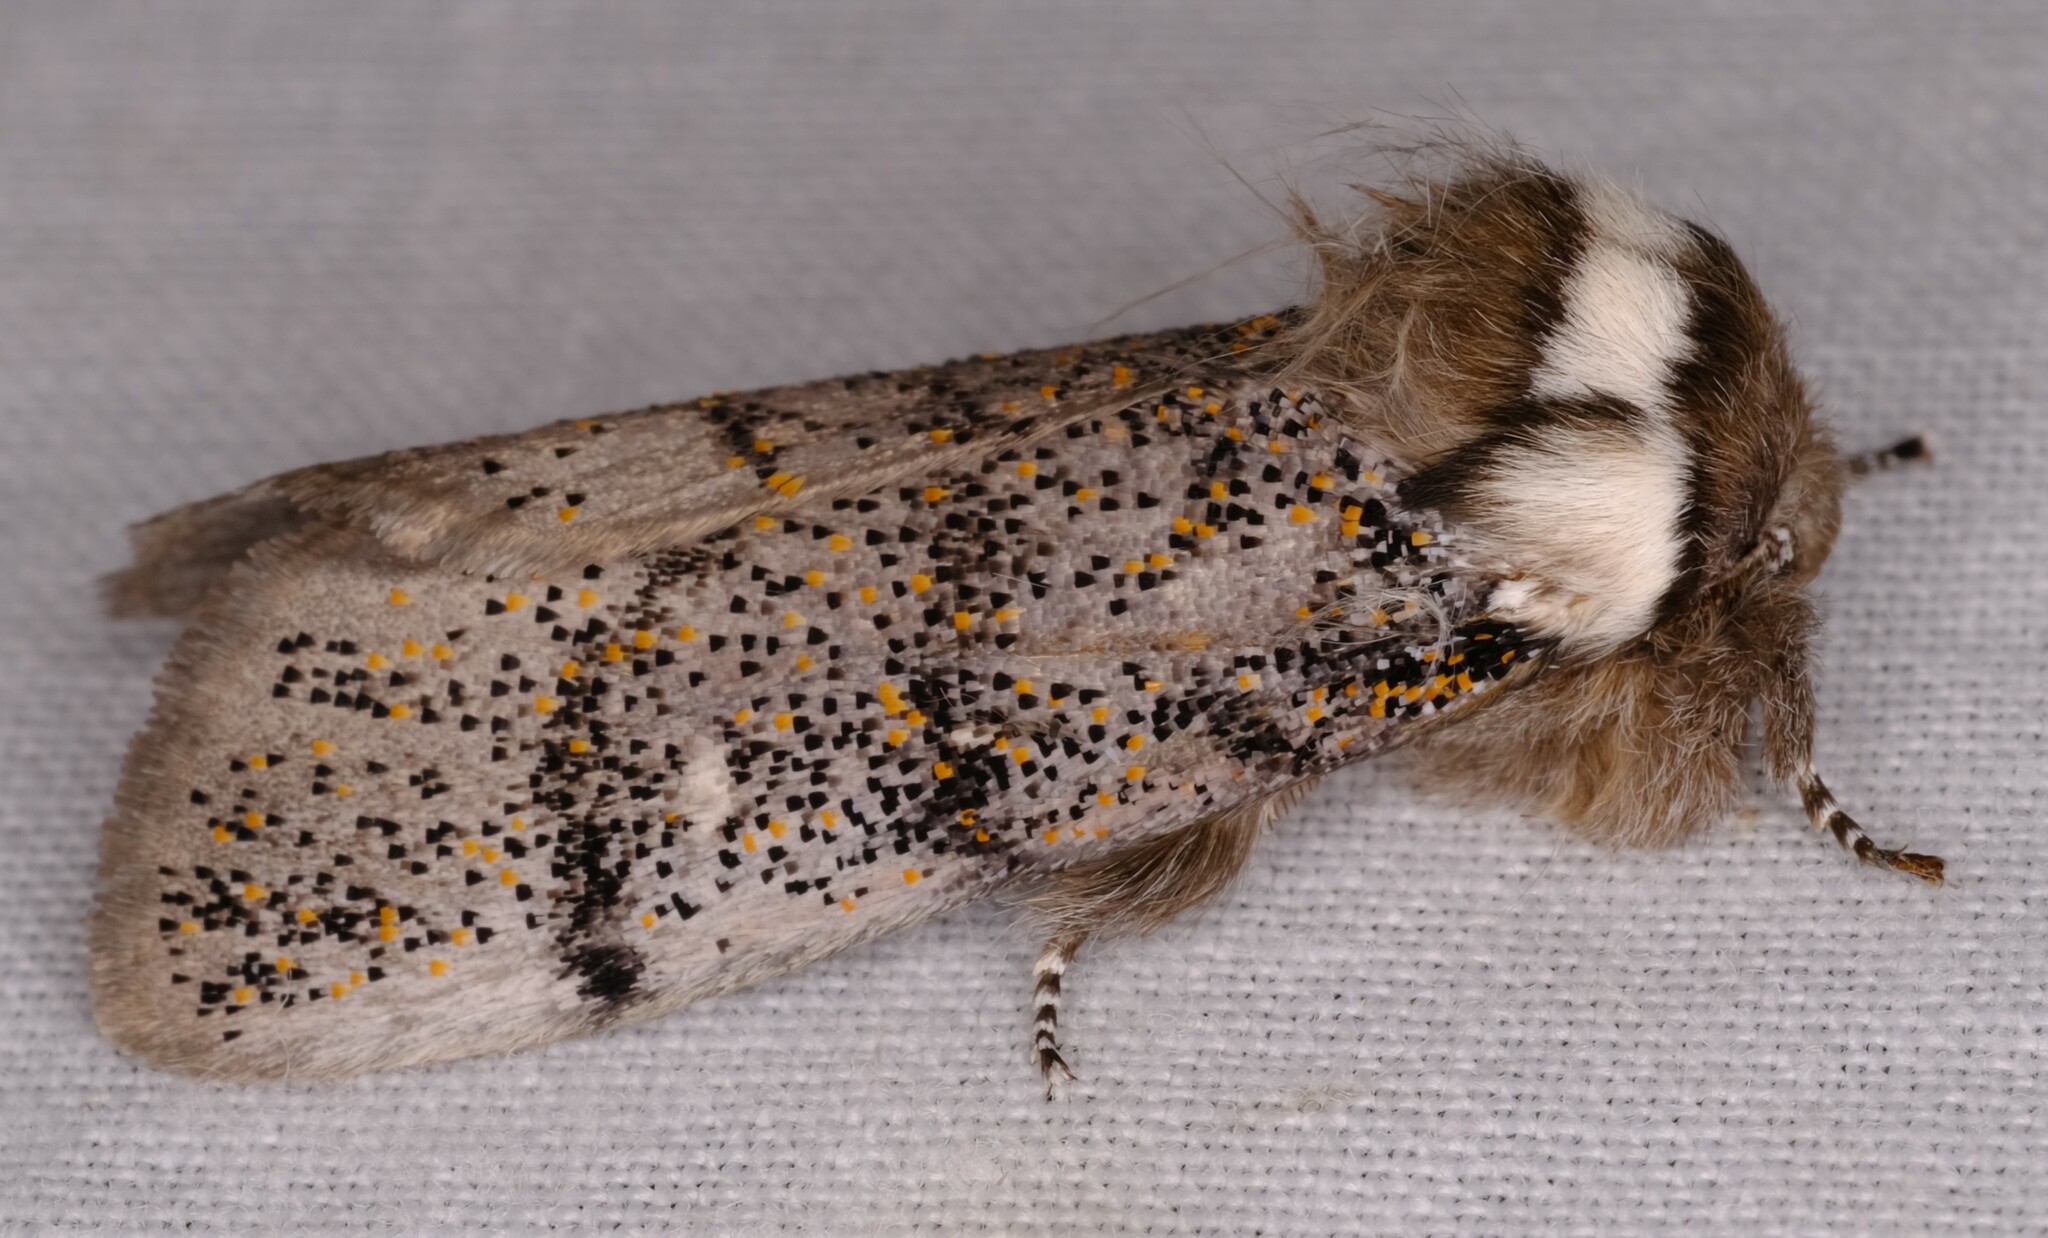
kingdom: Animalia
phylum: Arthropoda
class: Insecta
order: Lepidoptera
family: Oenosandridae
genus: Oenosandra
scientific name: Oenosandra boisduvalii
